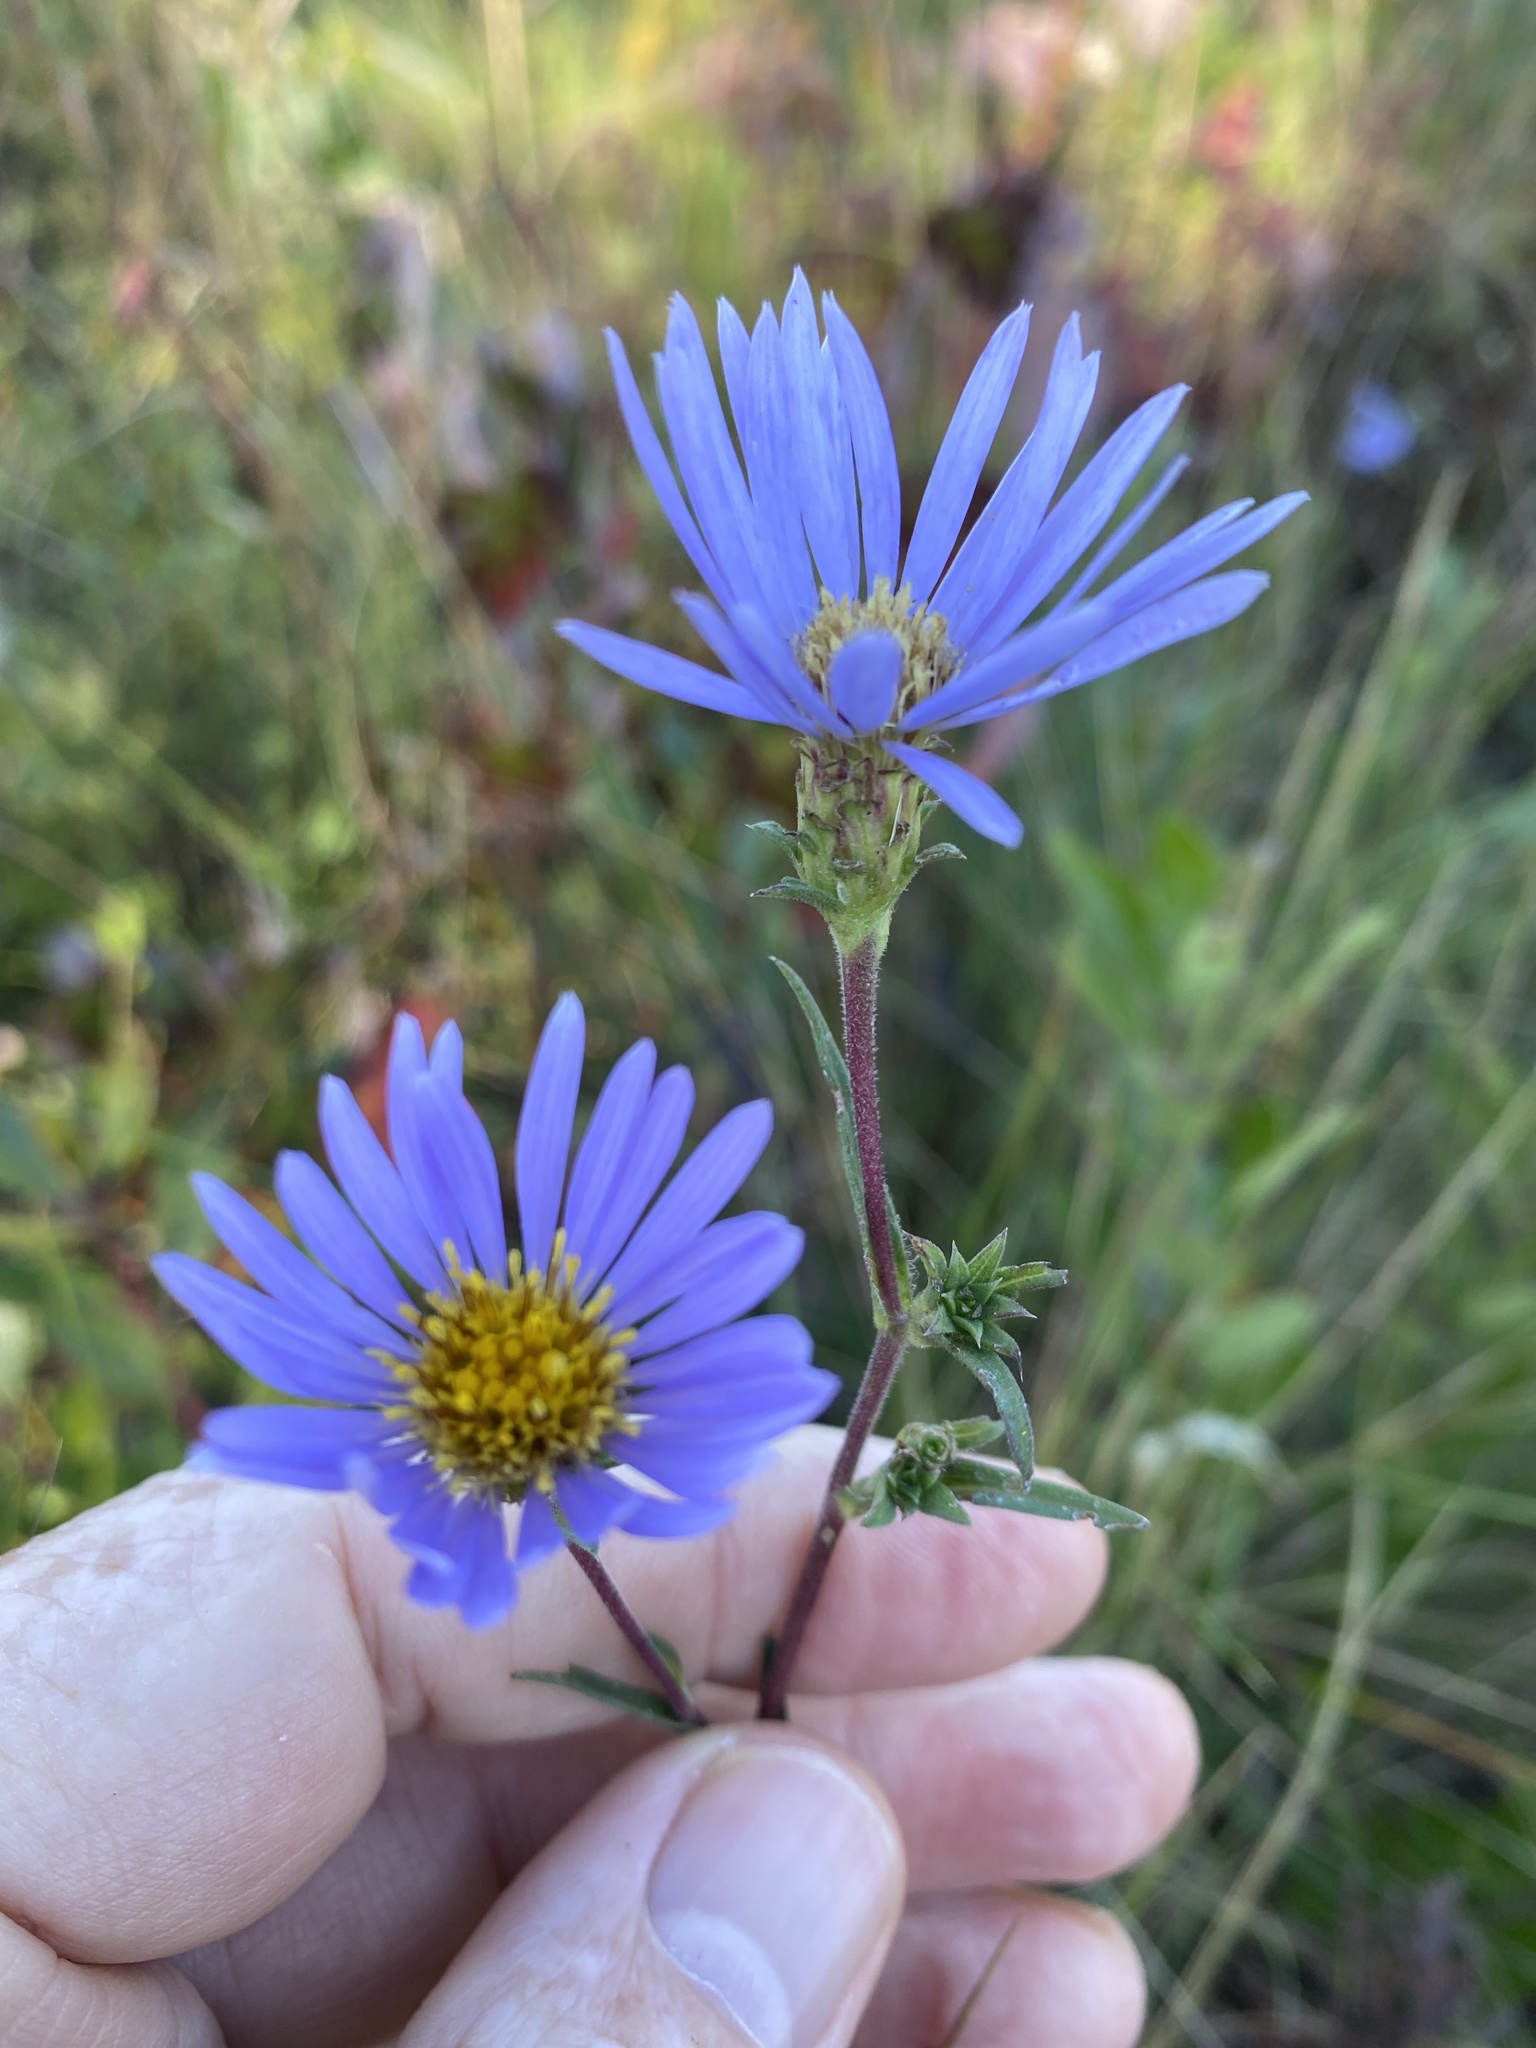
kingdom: Plantae
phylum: Tracheophyta
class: Magnoliopsida
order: Asterales
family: Asteraceae
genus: Eurybia
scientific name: Eurybia paludosa
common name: Southern swamp aster
